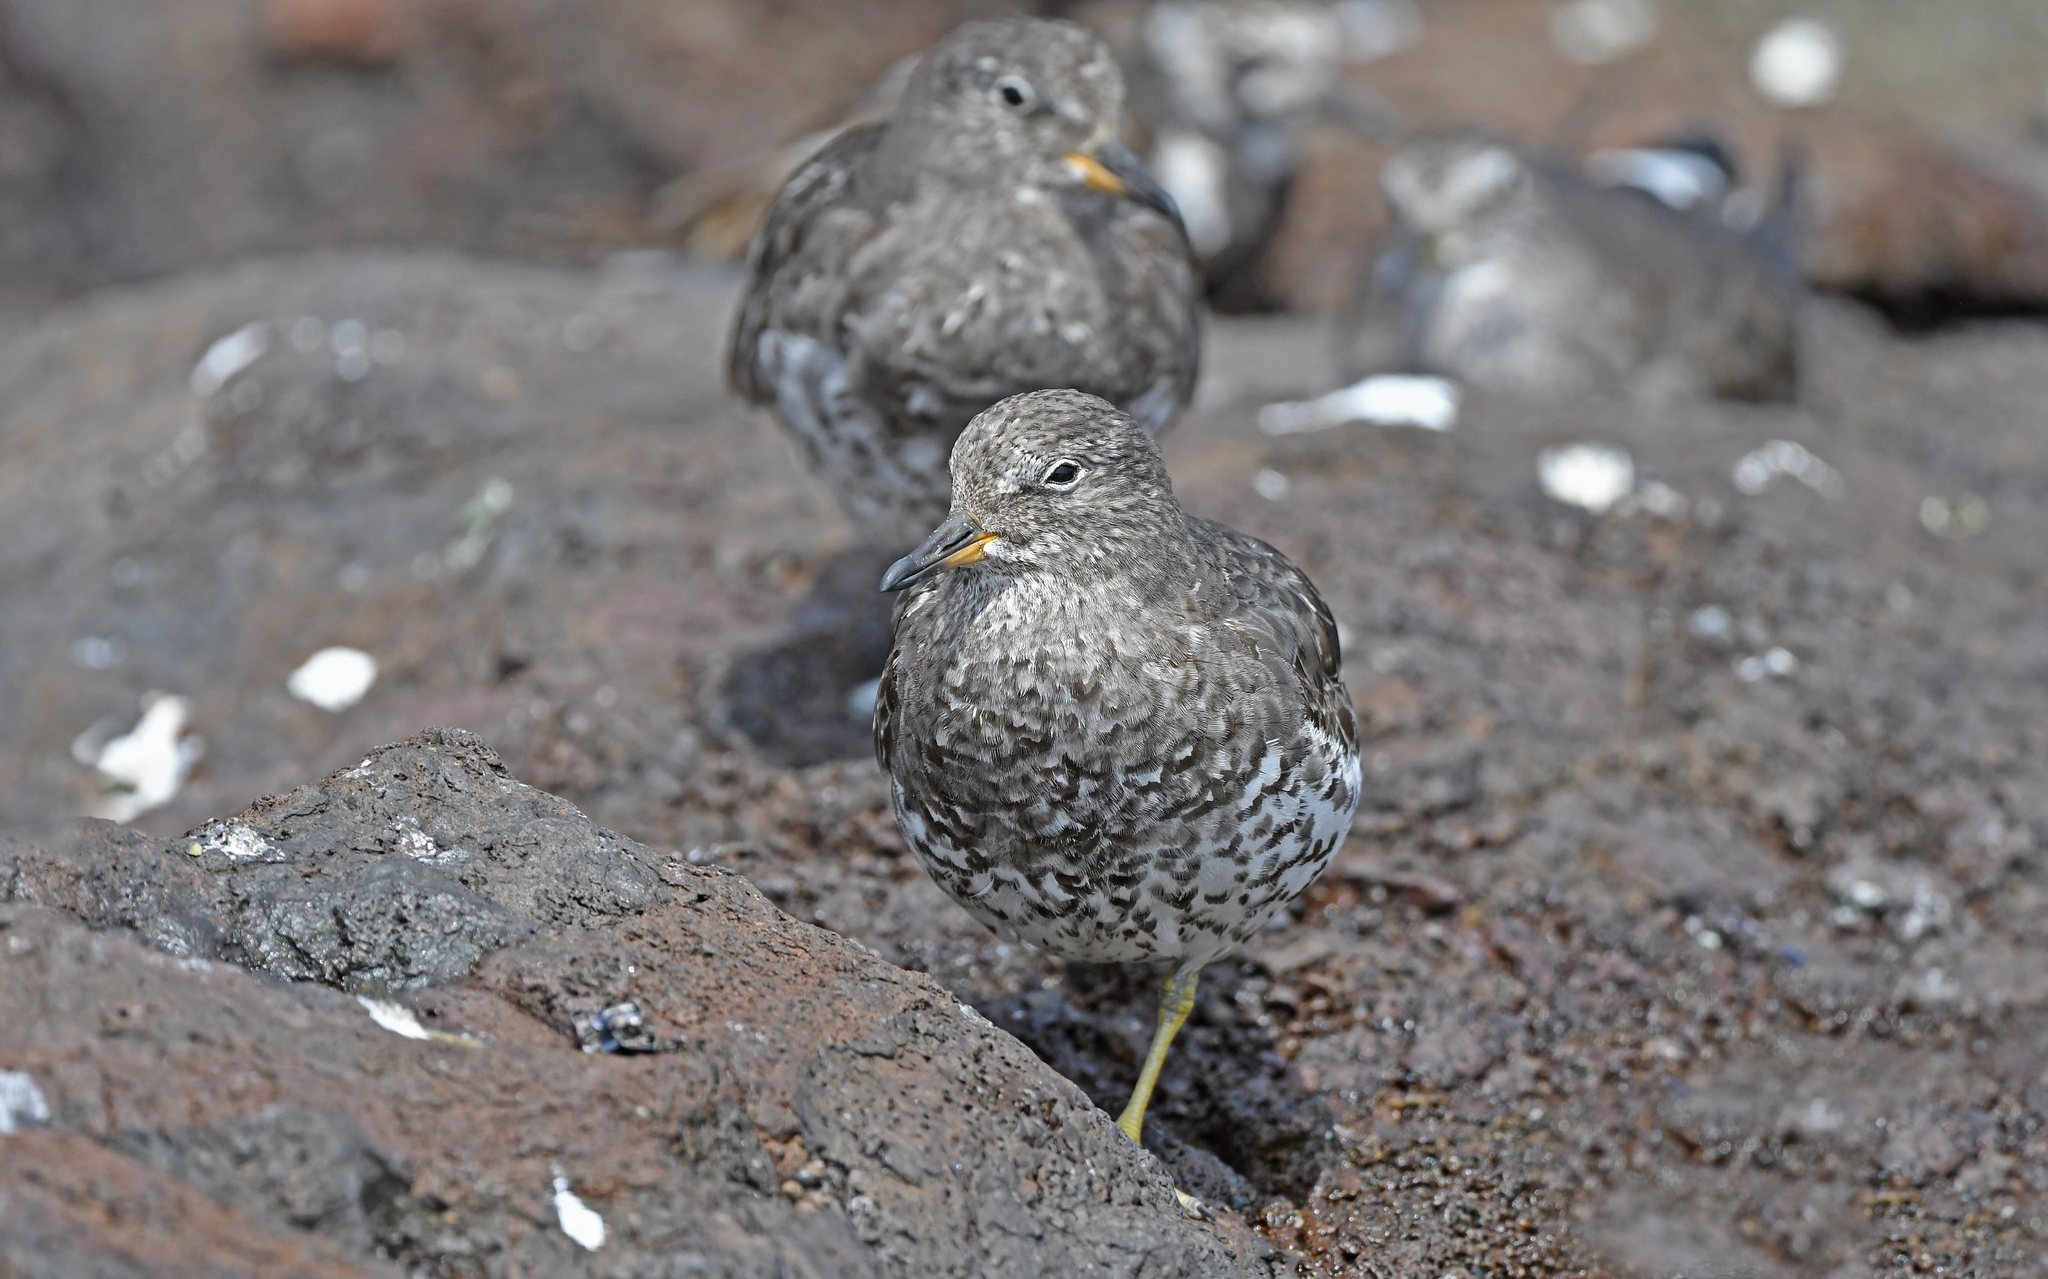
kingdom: Animalia
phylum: Chordata
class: Aves
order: Charadriiformes
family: Scolopacidae
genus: Calidris
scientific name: Calidris virgata
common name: Surfbird
